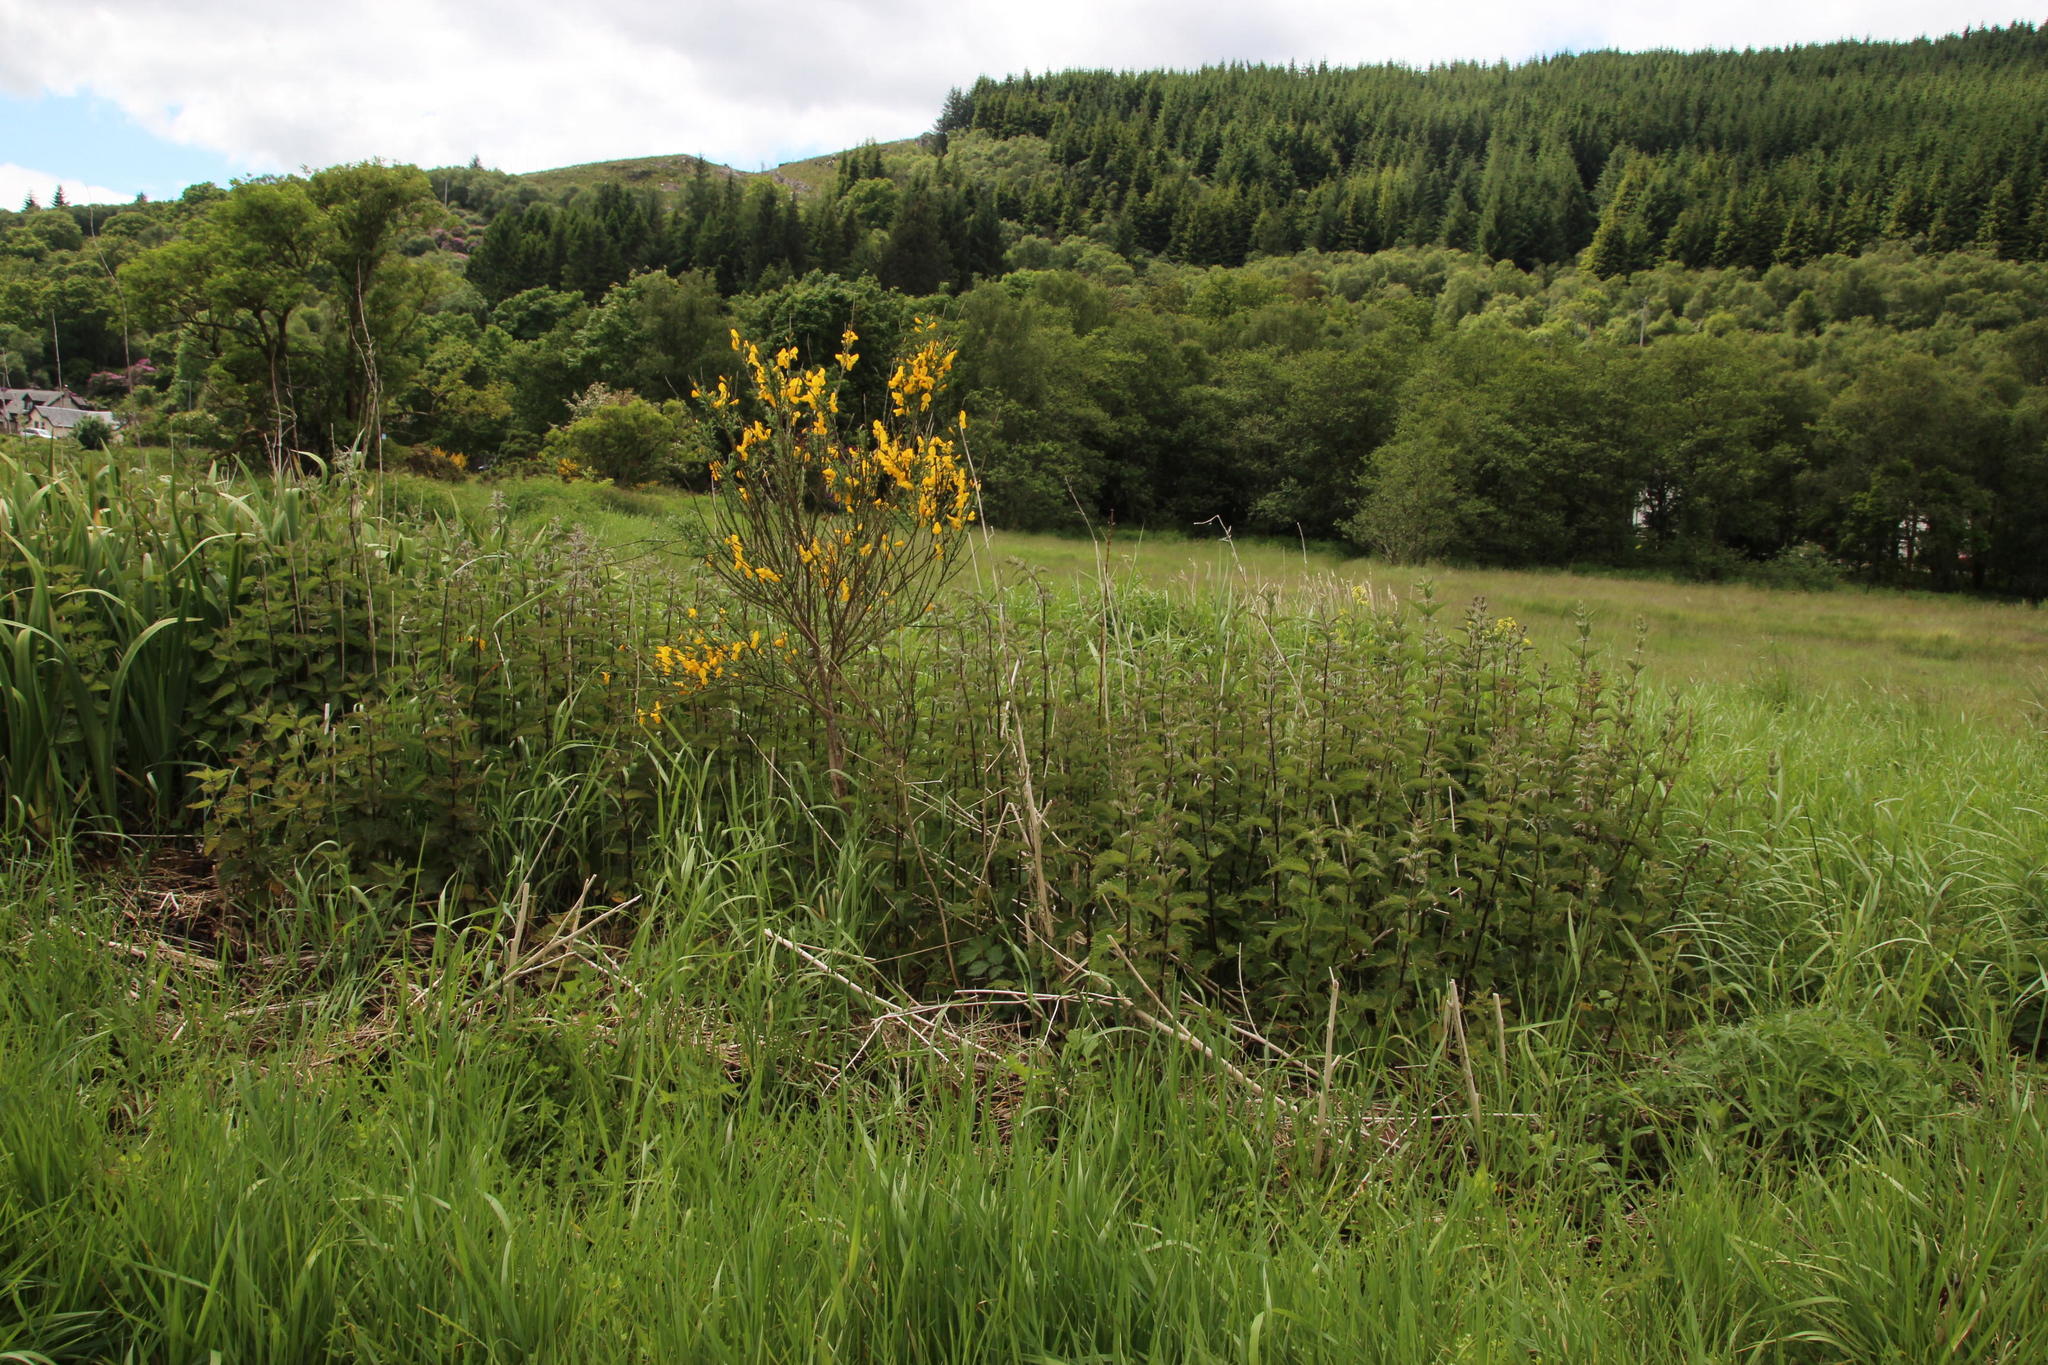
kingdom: Plantae
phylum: Tracheophyta
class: Magnoliopsida
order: Rosales
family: Urticaceae
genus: Urtica
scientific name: Urtica dioica
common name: Common nettle
